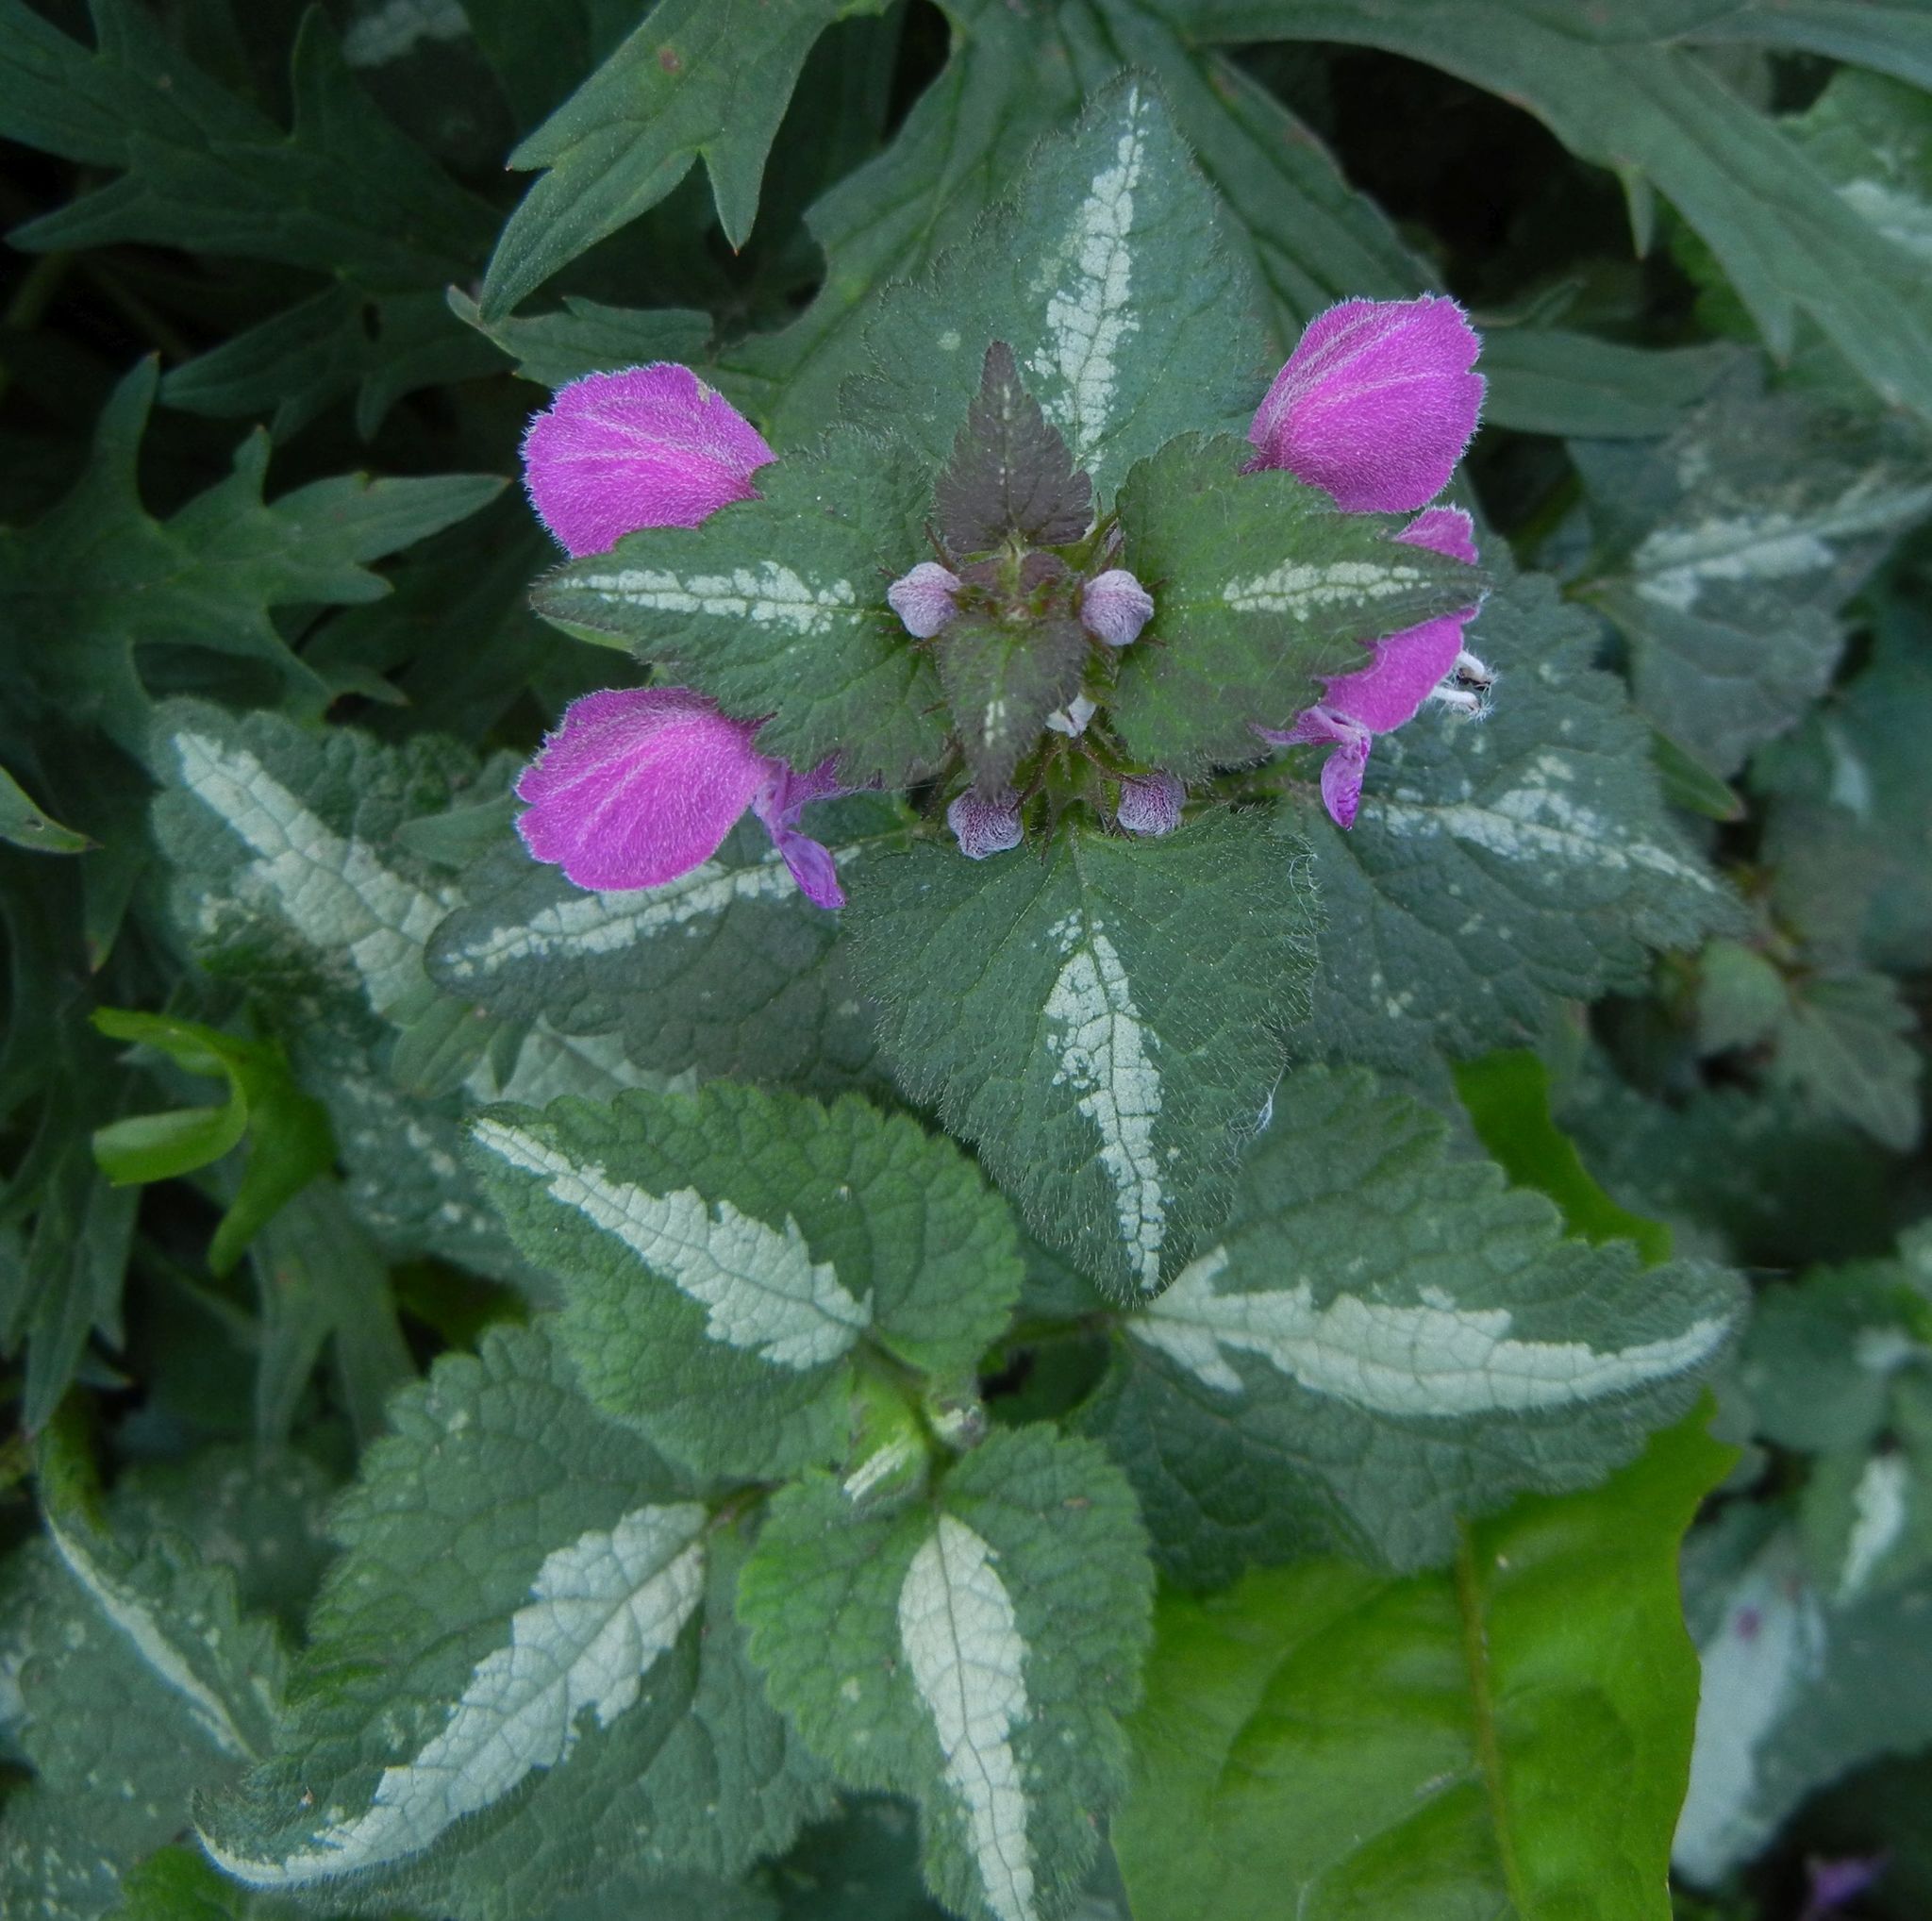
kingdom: Plantae
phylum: Tracheophyta
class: Magnoliopsida
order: Lamiales
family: Lamiaceae
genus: Lamium
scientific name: Lamium maculatum
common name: Spotted dead-nettle
